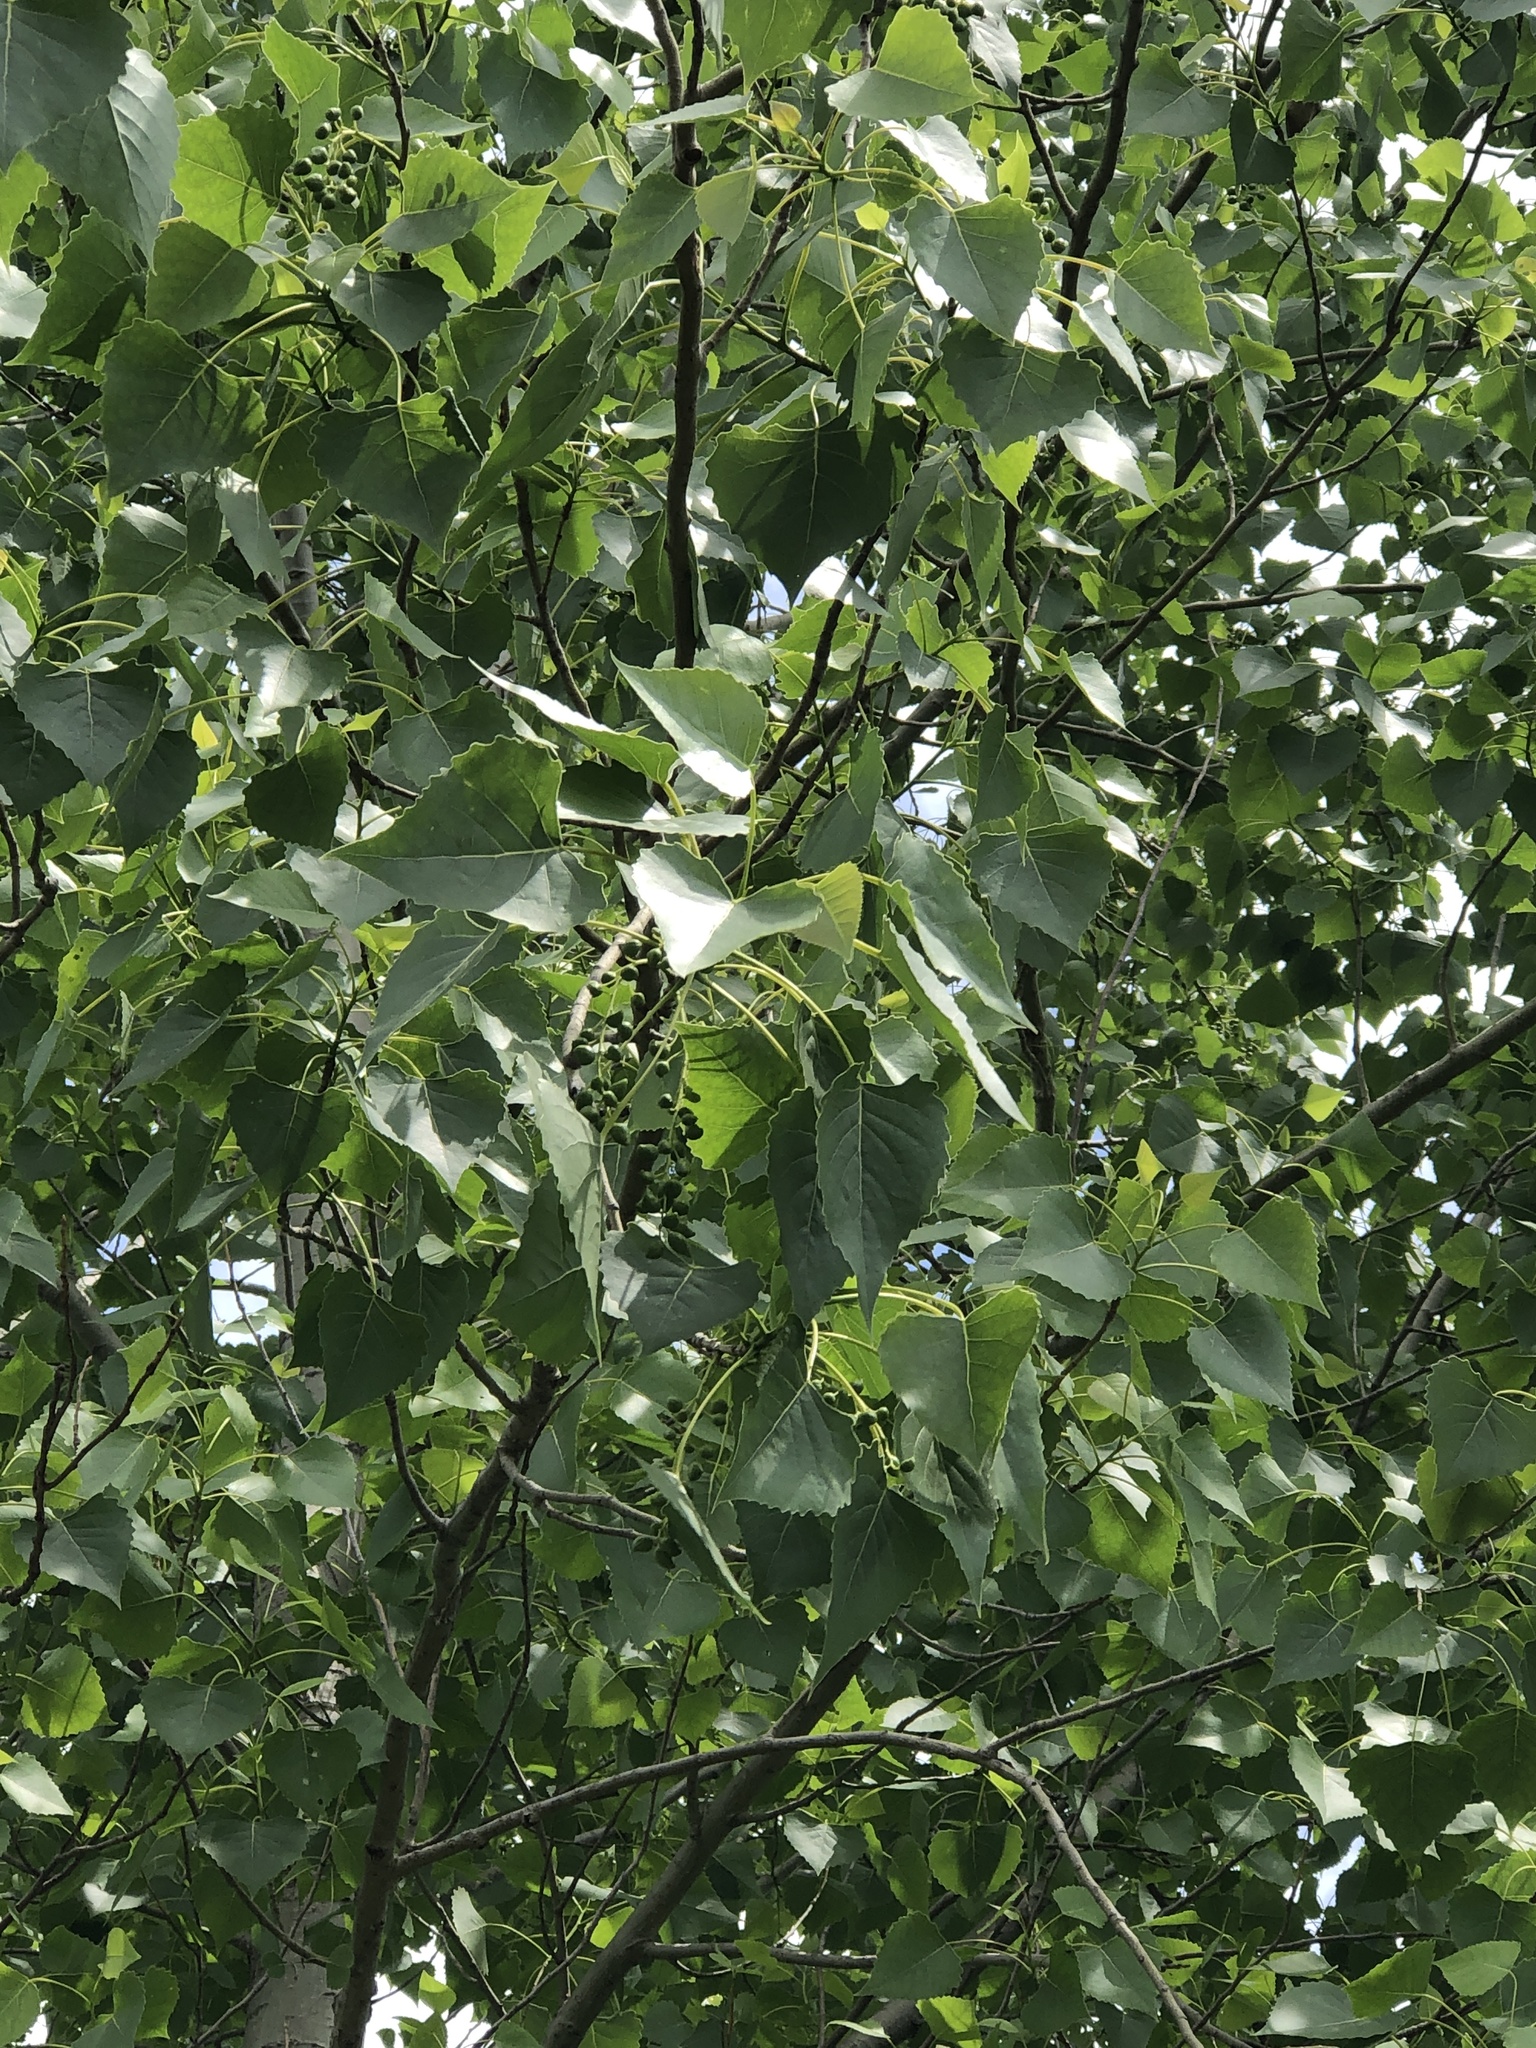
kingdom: Plantae
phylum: Tracheophyta
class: Magnoliopsida
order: Malpighiales
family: Salicaceae
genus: Populus
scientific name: Populus deltoides
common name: Eastern cottonwood
